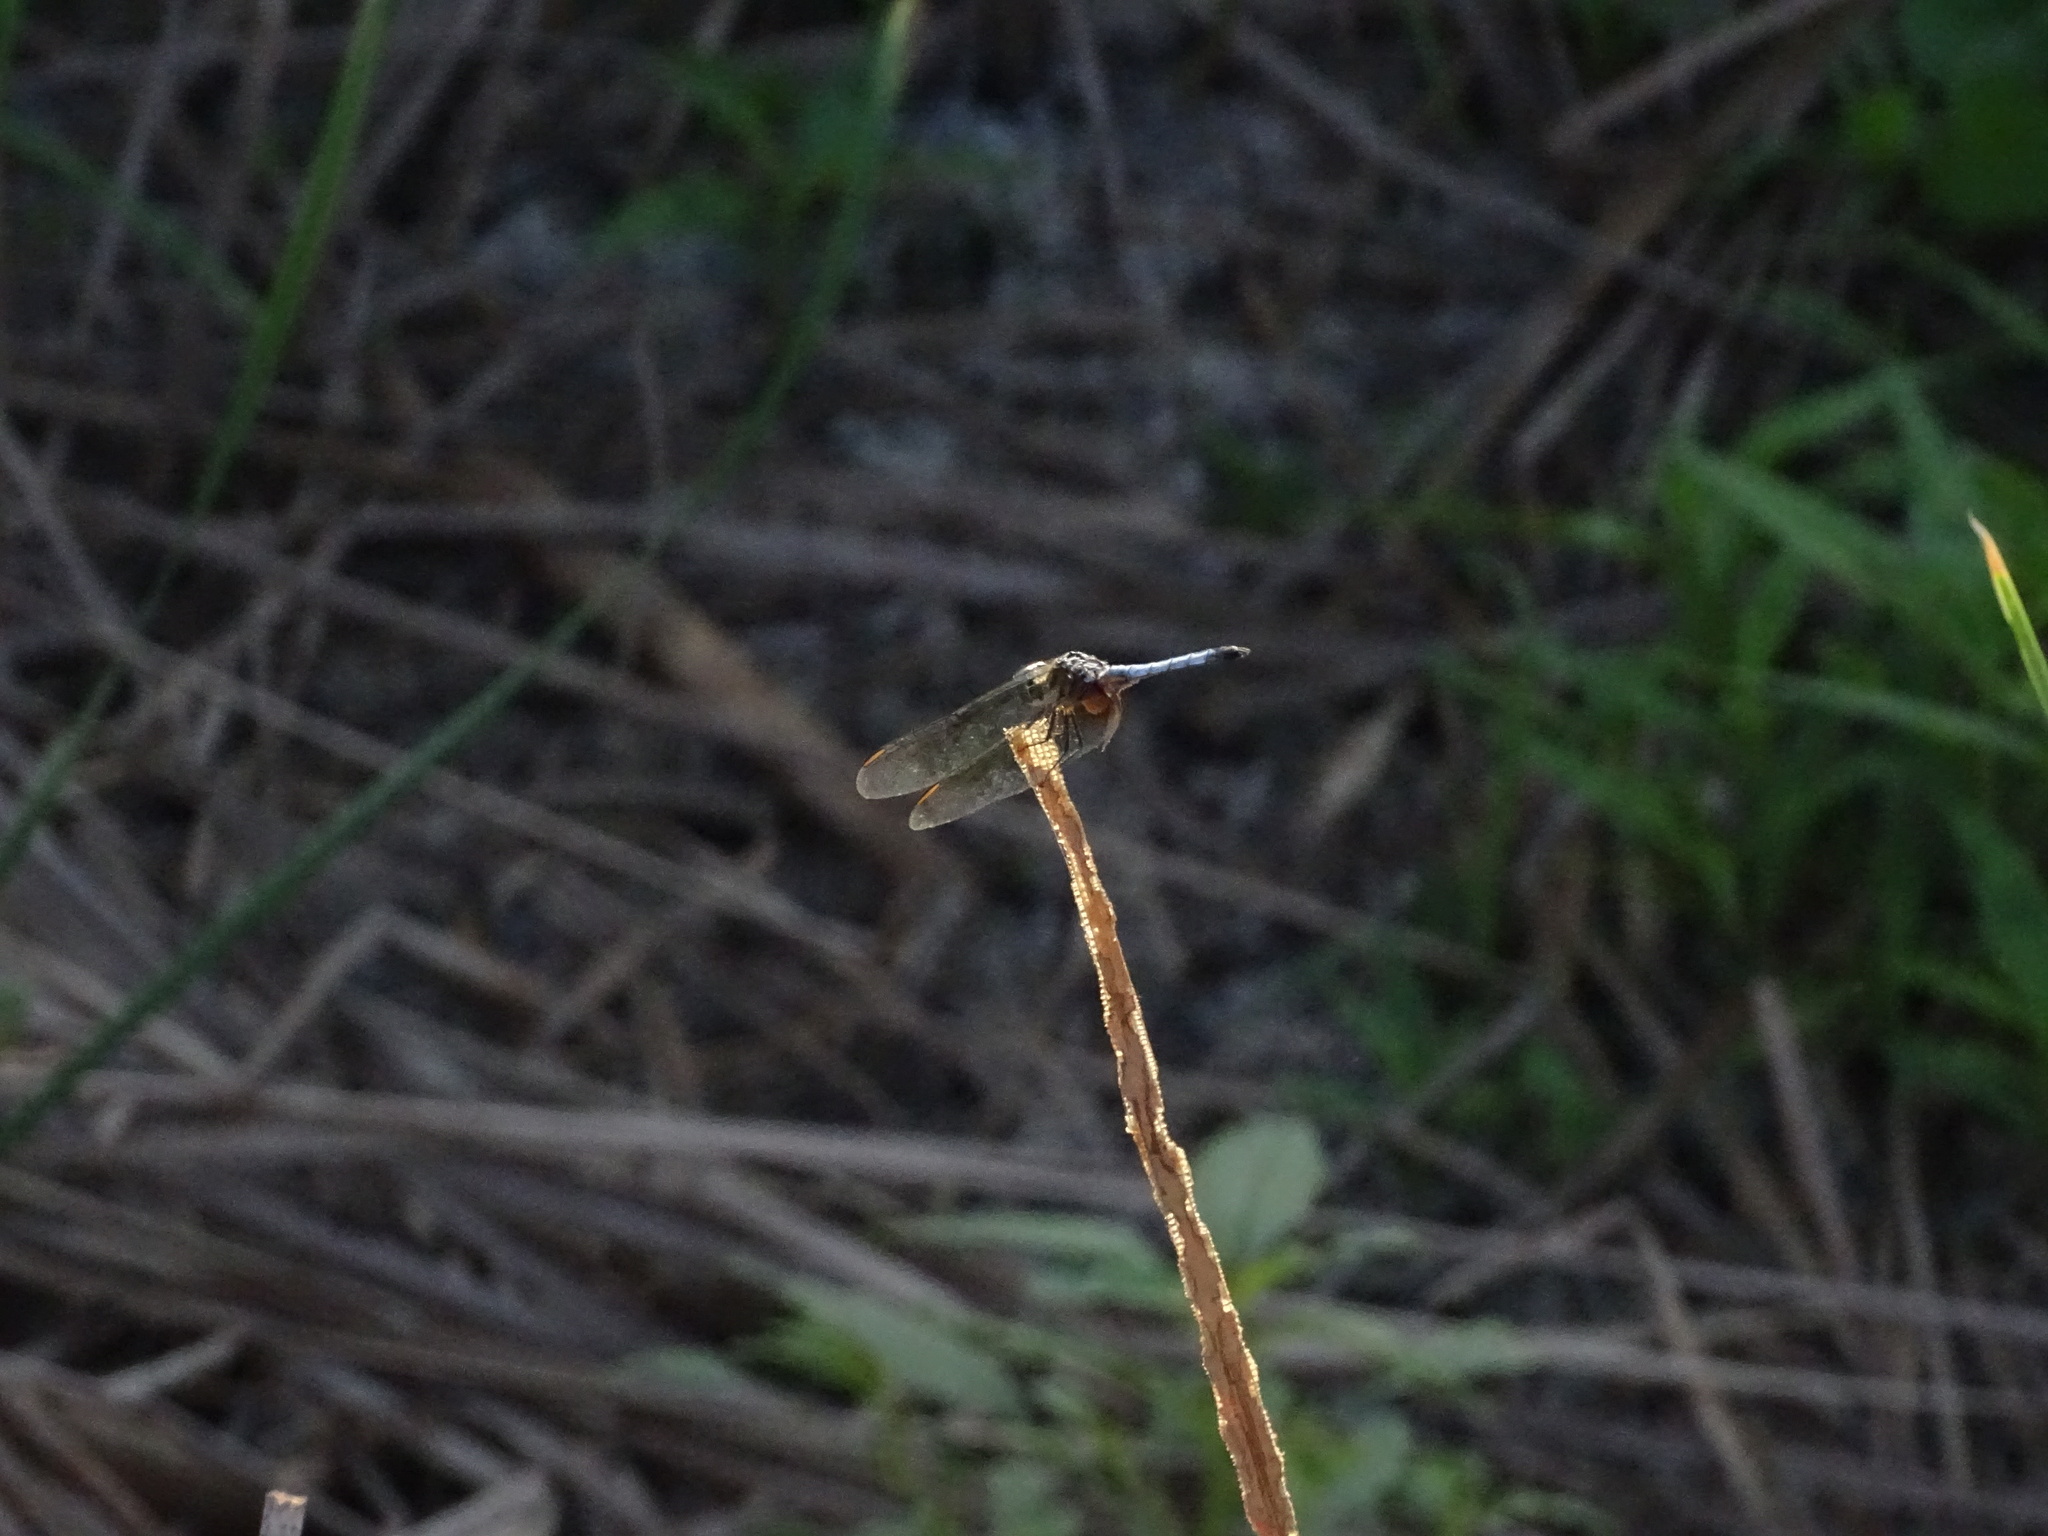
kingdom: Animalia
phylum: Arthropoda
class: Insecta
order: Odonata
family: Libellulidae
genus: Pachydiplax
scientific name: Pachydiplax longipennis
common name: Blue dasher
